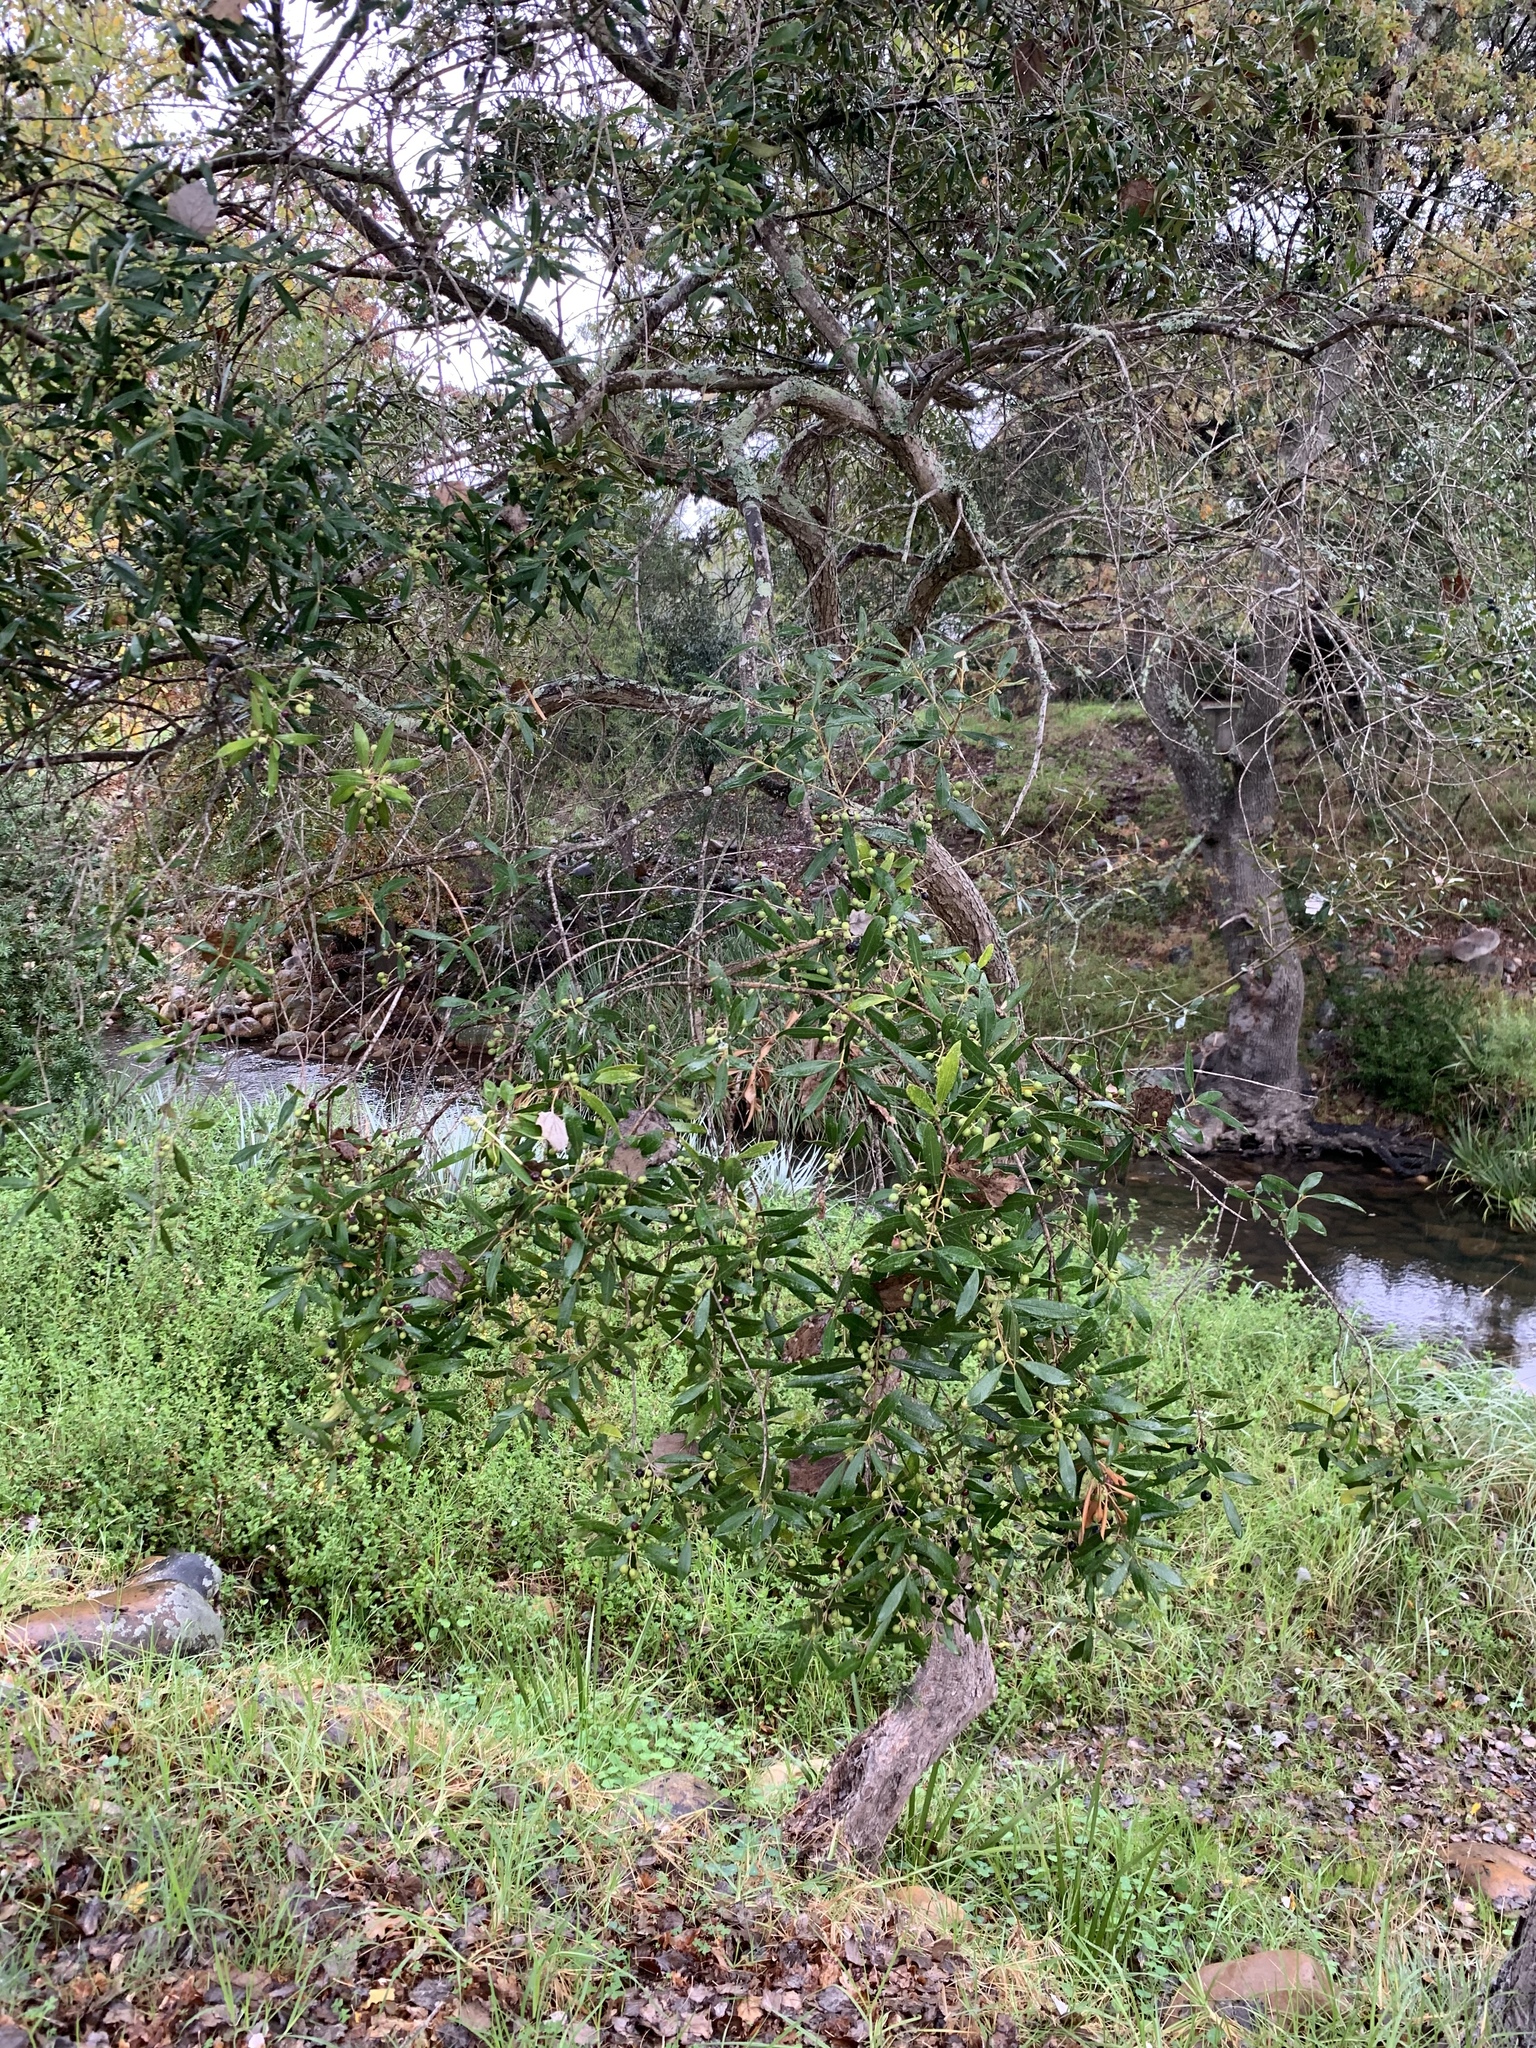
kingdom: Plantae
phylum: Tracheophyta
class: Magnoliopsida
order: Lamiales
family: Oleaceae
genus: Olea
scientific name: Olea europaea
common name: Olive
